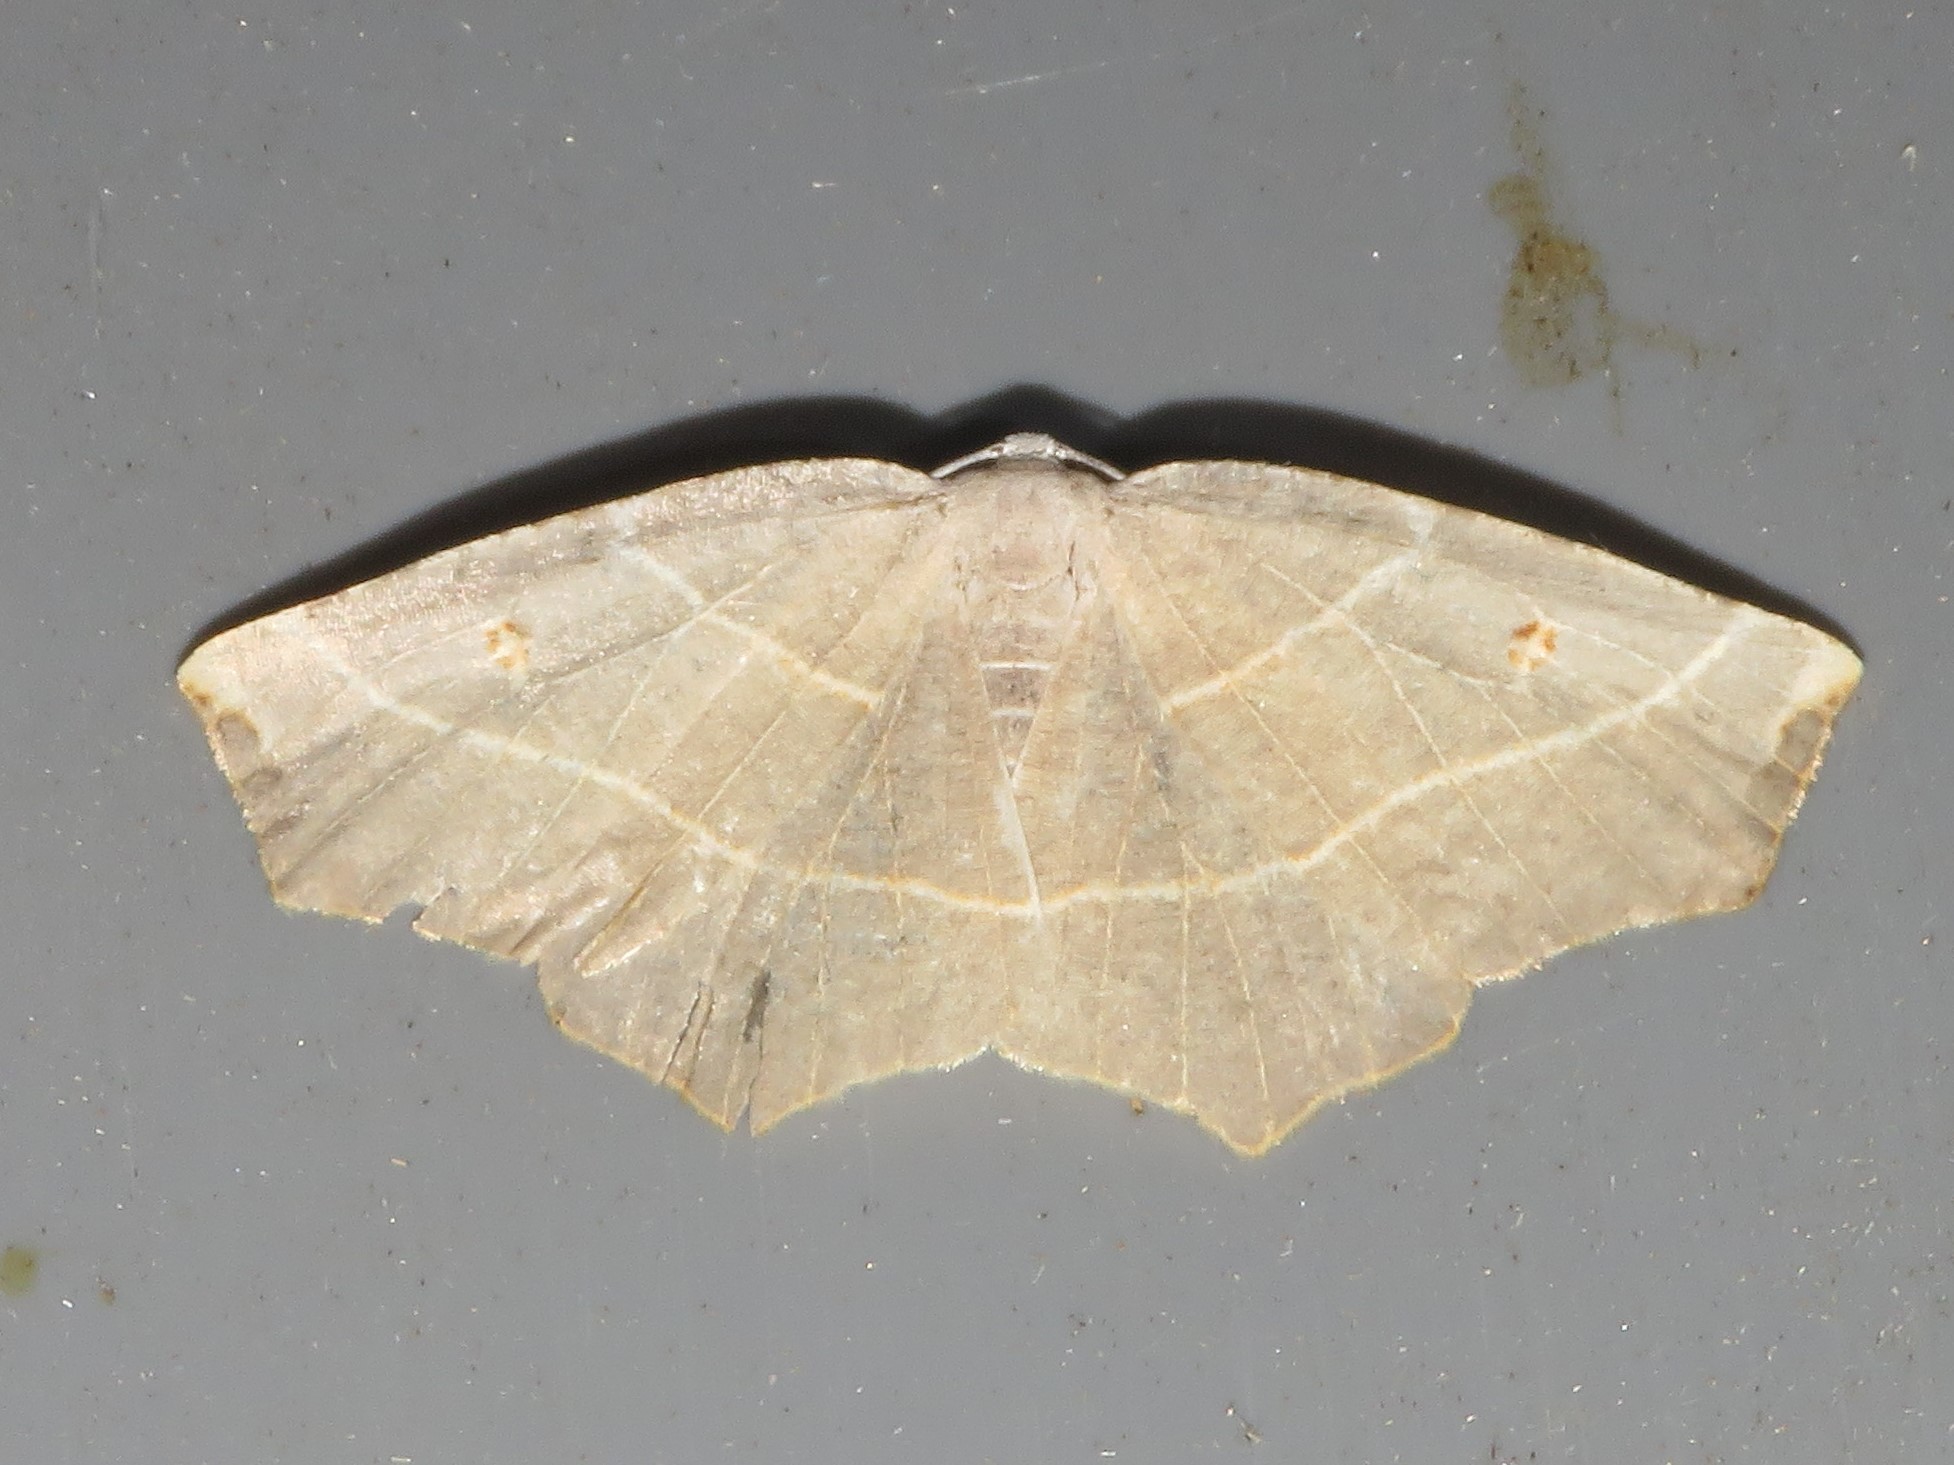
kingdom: Animalia
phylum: Arthropoda
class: Insecta
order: Lepidoptera
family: Geometridae
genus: Metanema
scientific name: Metanema inatomaria
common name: Pale metanema
